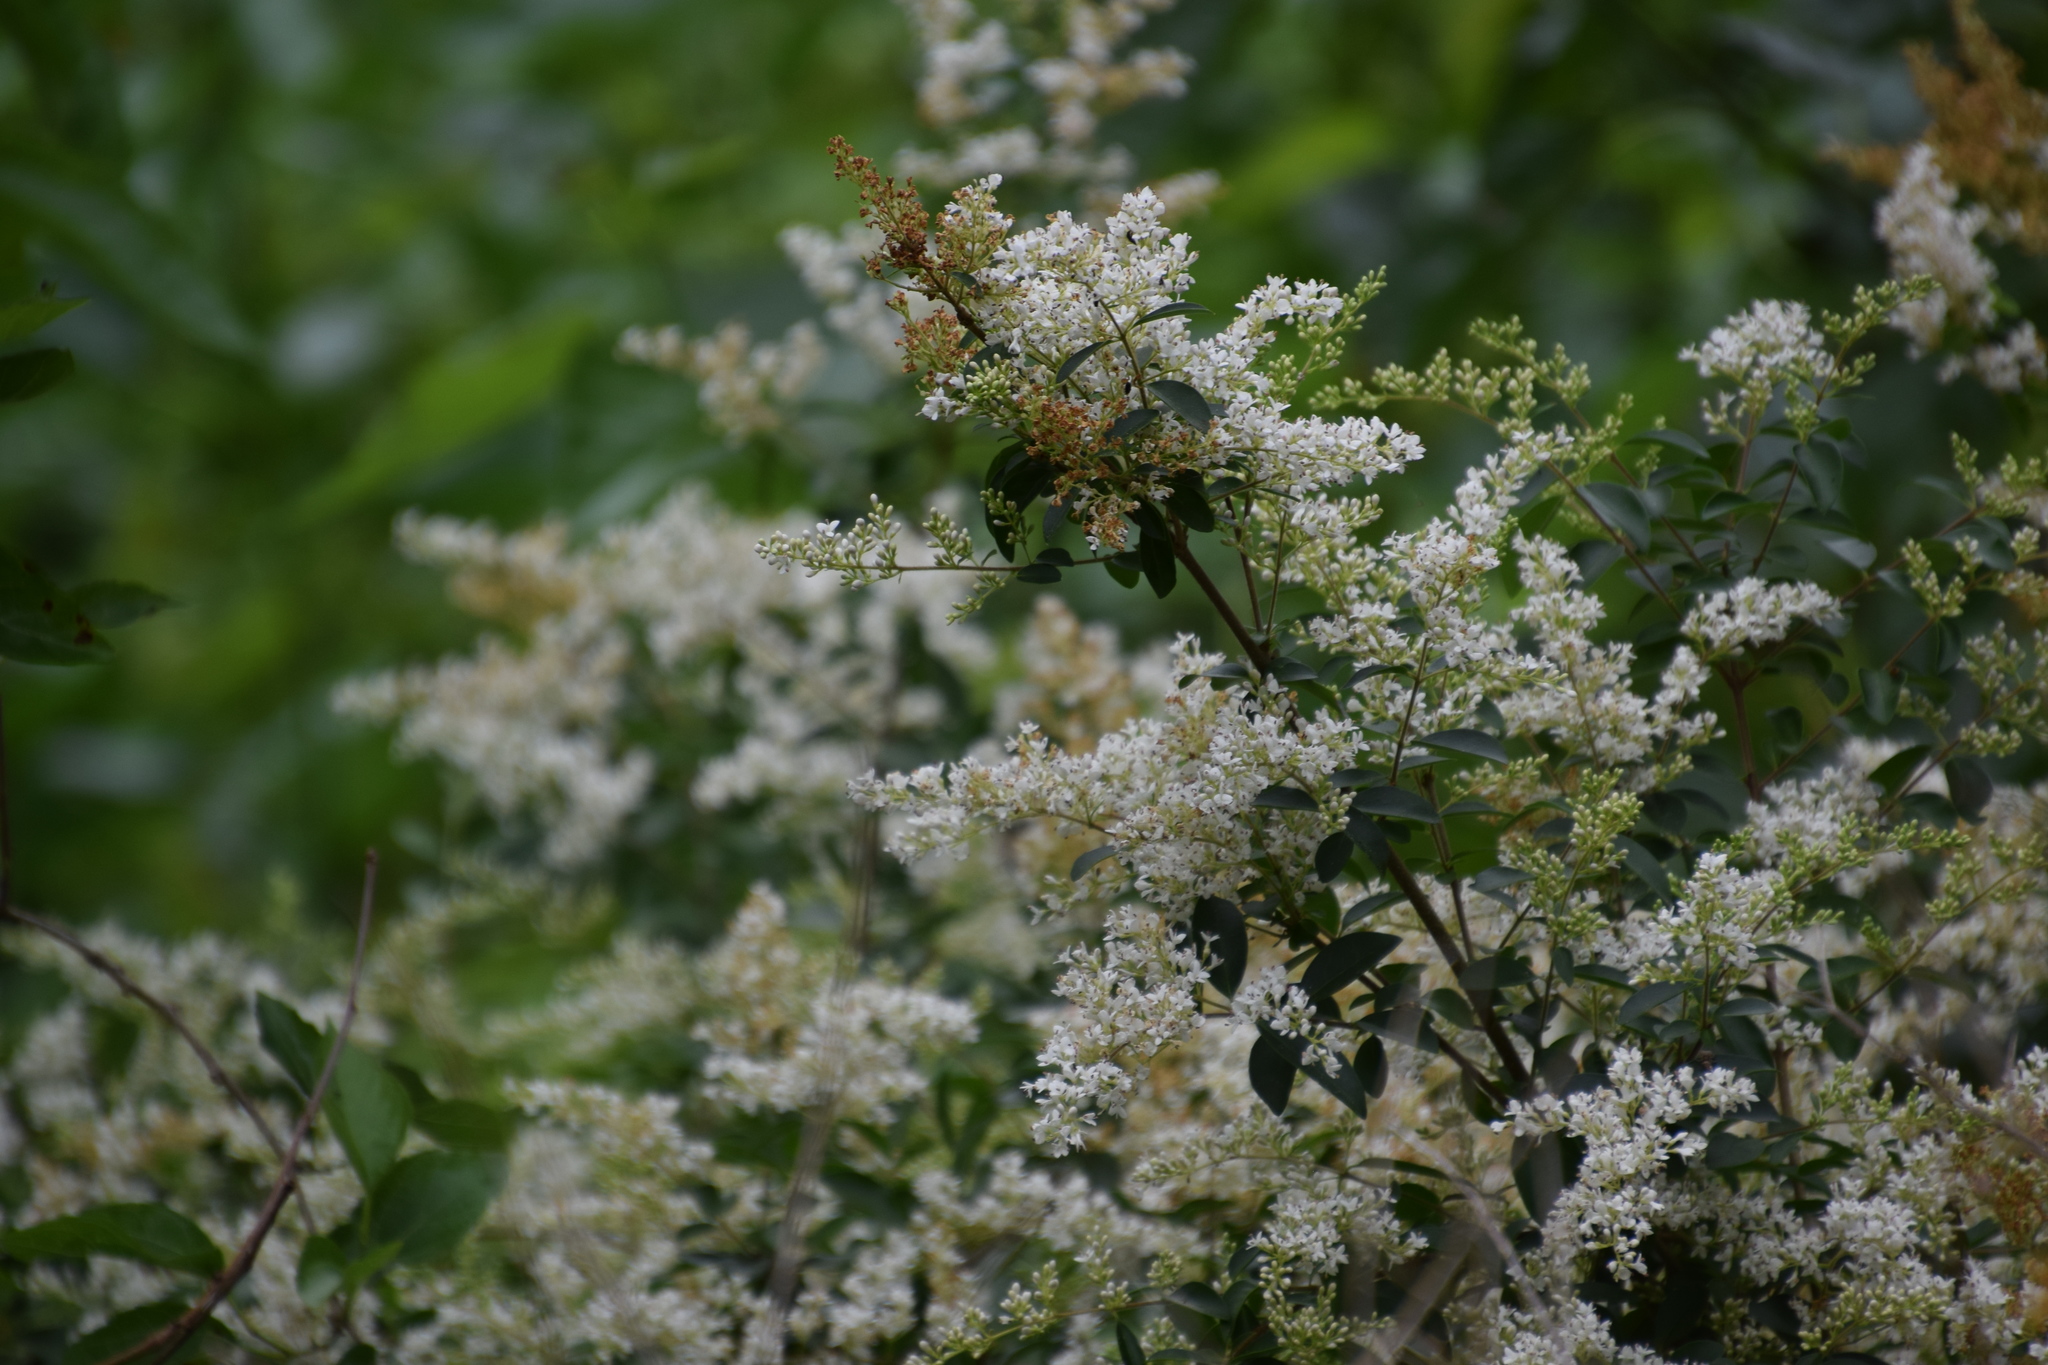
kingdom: Plantae
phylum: Tracheophyta
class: Magnoliopsida
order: Lamiales
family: Oleaceae
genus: Ligustrum
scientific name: Ligustrum sinense
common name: Chinese privet
